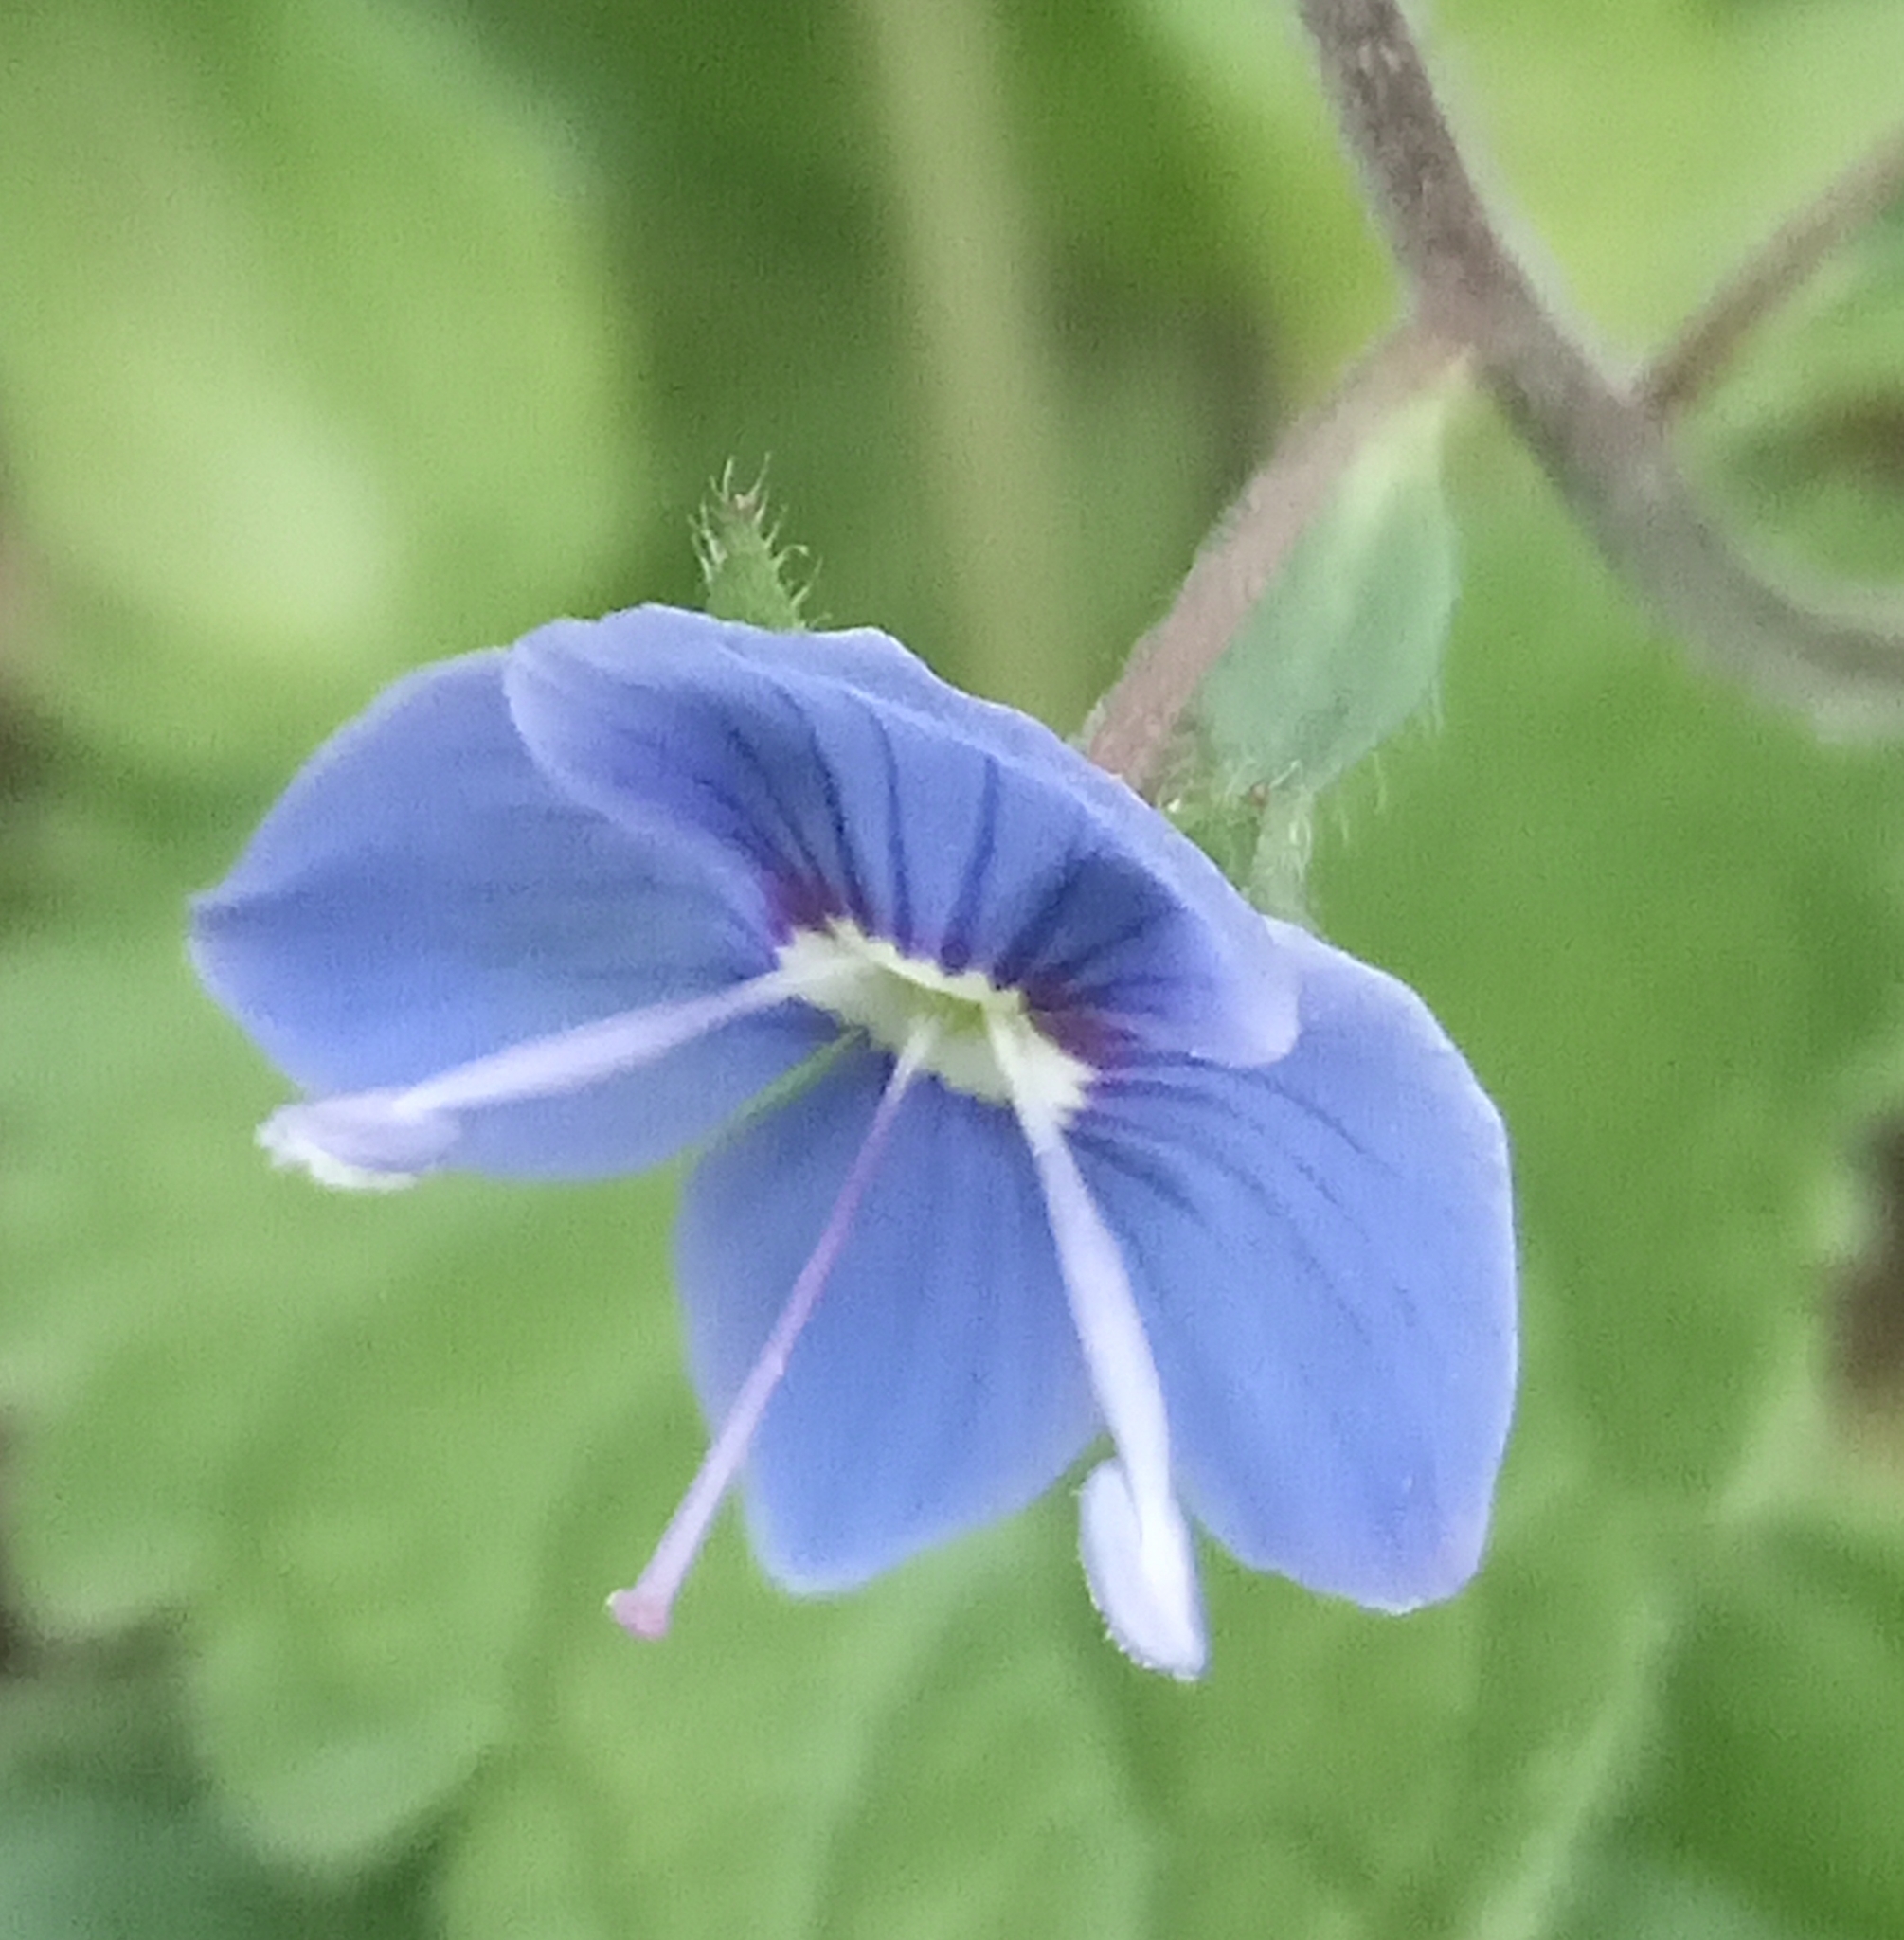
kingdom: Plantae
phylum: Tracheophyta
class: Magnoliopsida
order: Lamiales
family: Plantaginaceae
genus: Veronica
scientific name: Veronica chamaedrys
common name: Germander speedwell
